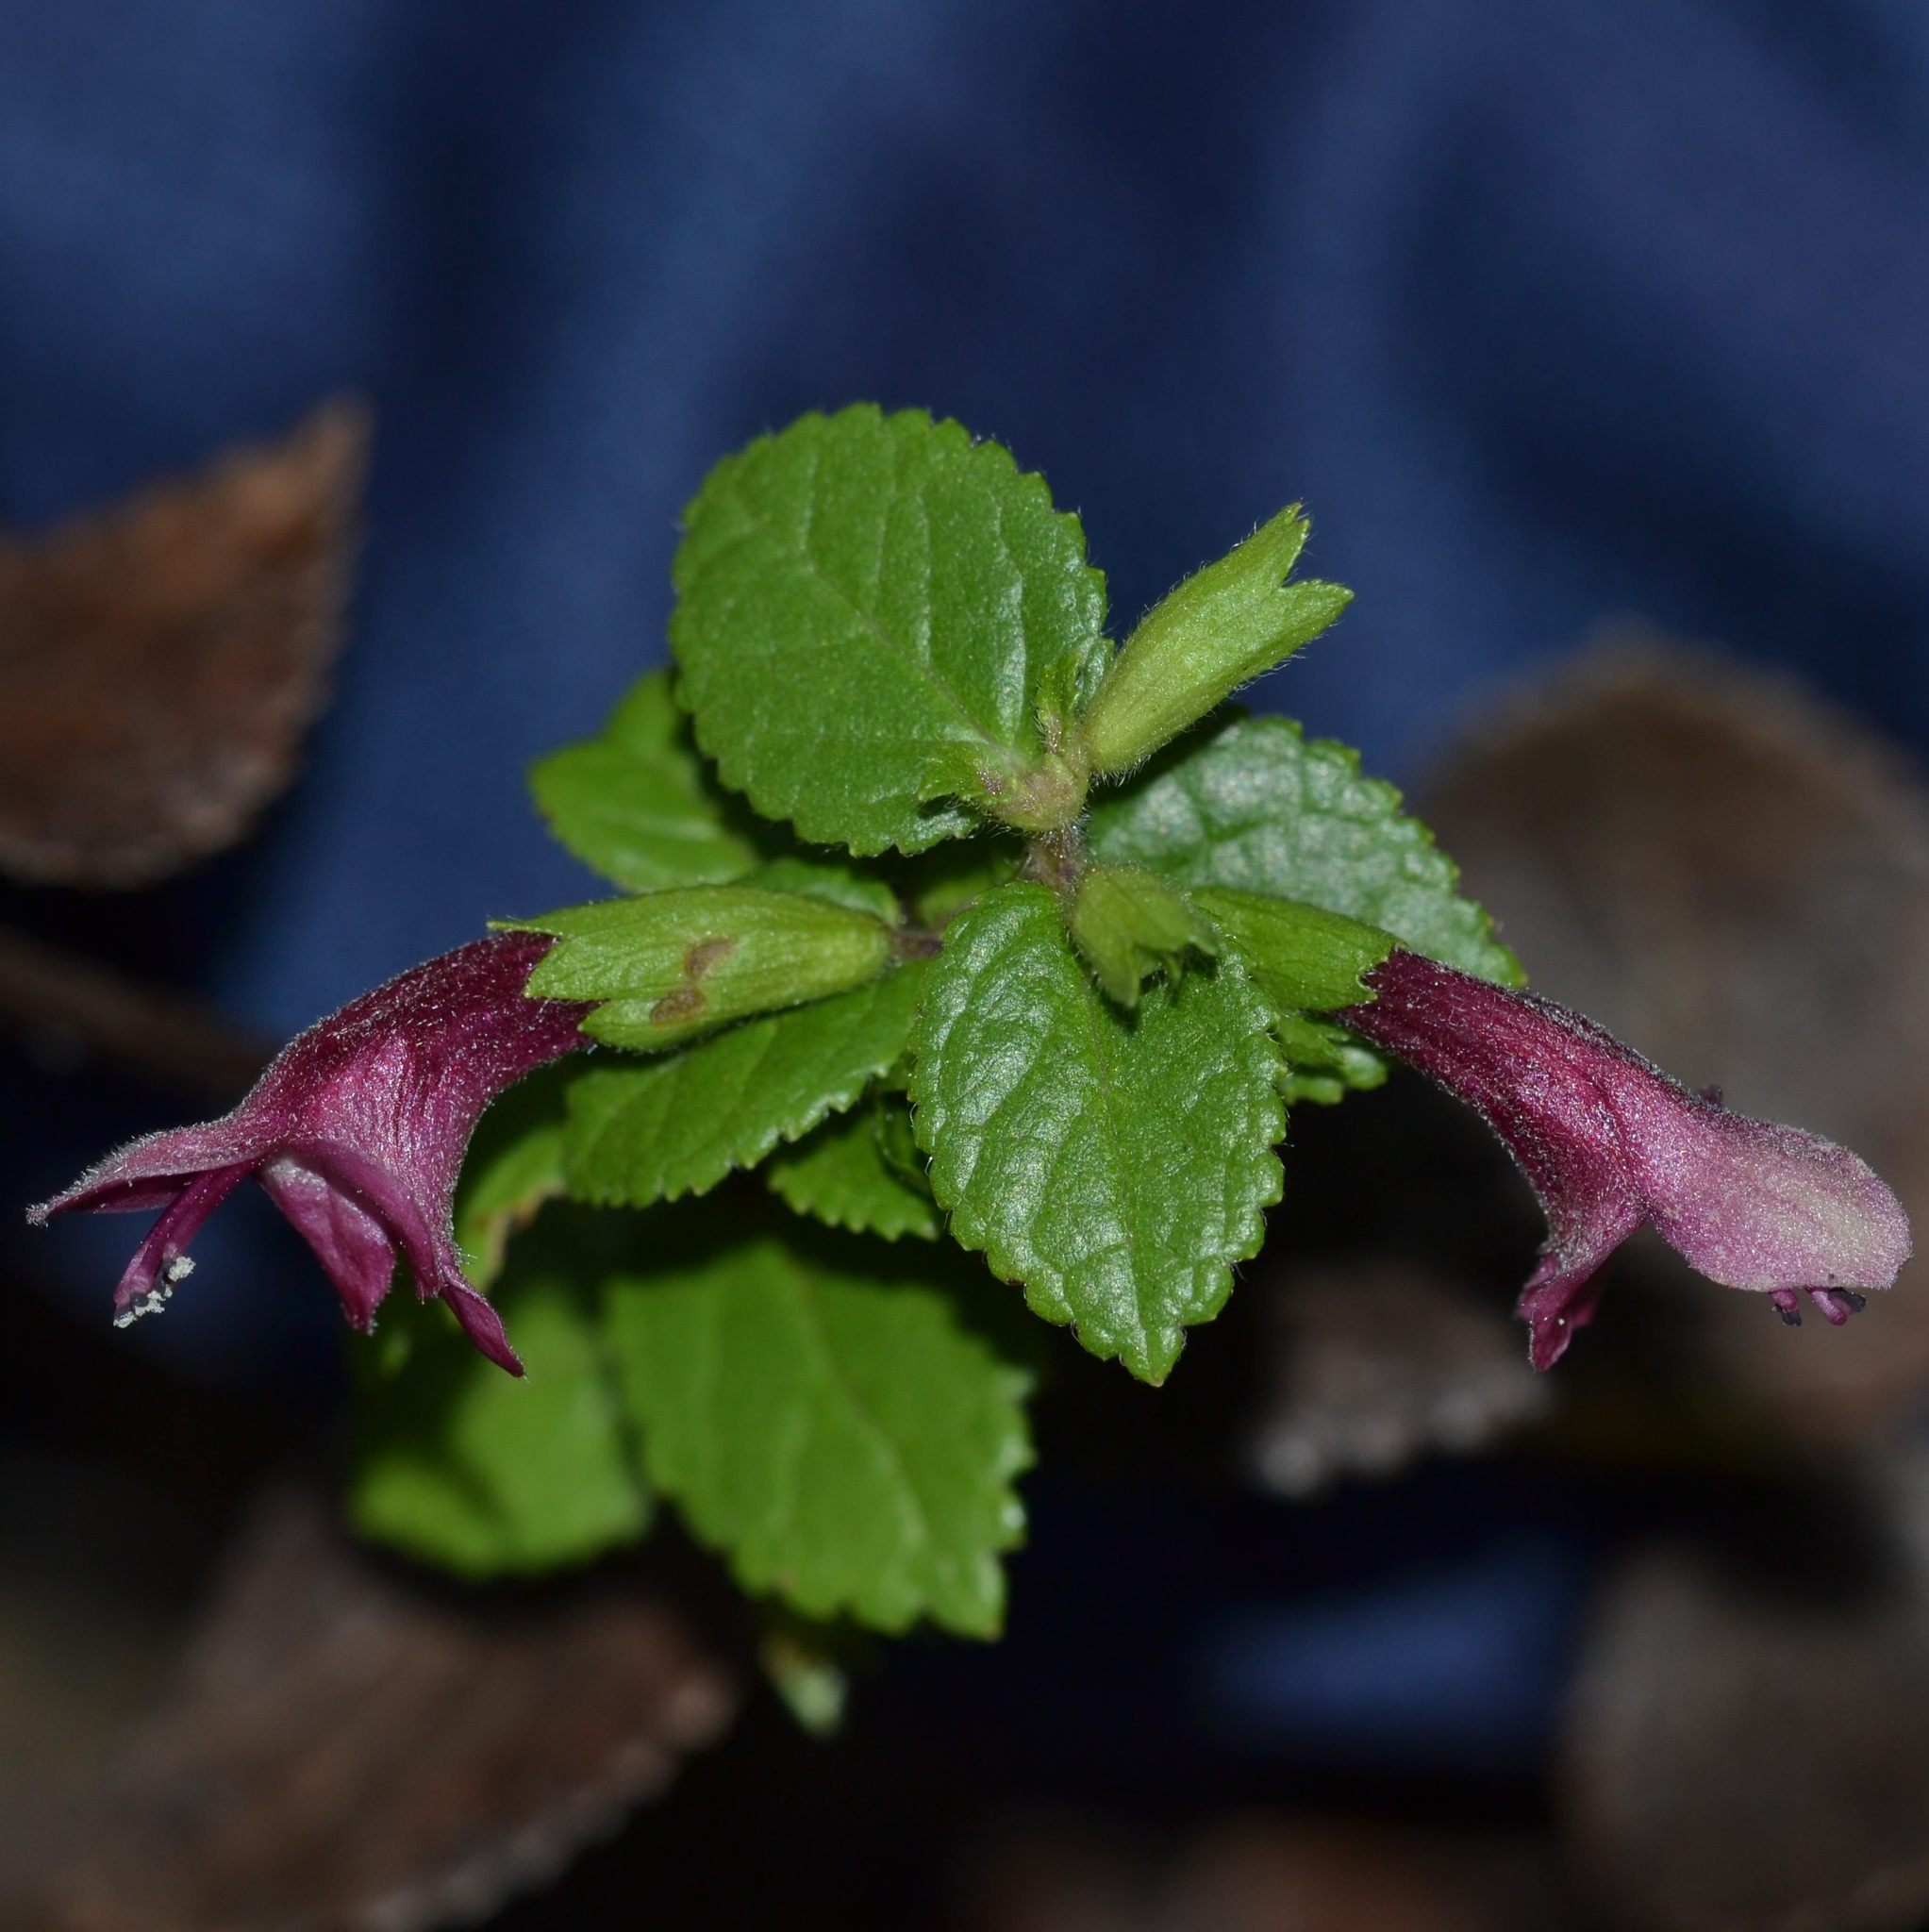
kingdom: Plantae
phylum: Tracheophyta
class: Magnoliopsida
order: Lamiales
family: Lamiaceae
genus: Stenogyne
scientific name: Stenogyne calaminthoides
